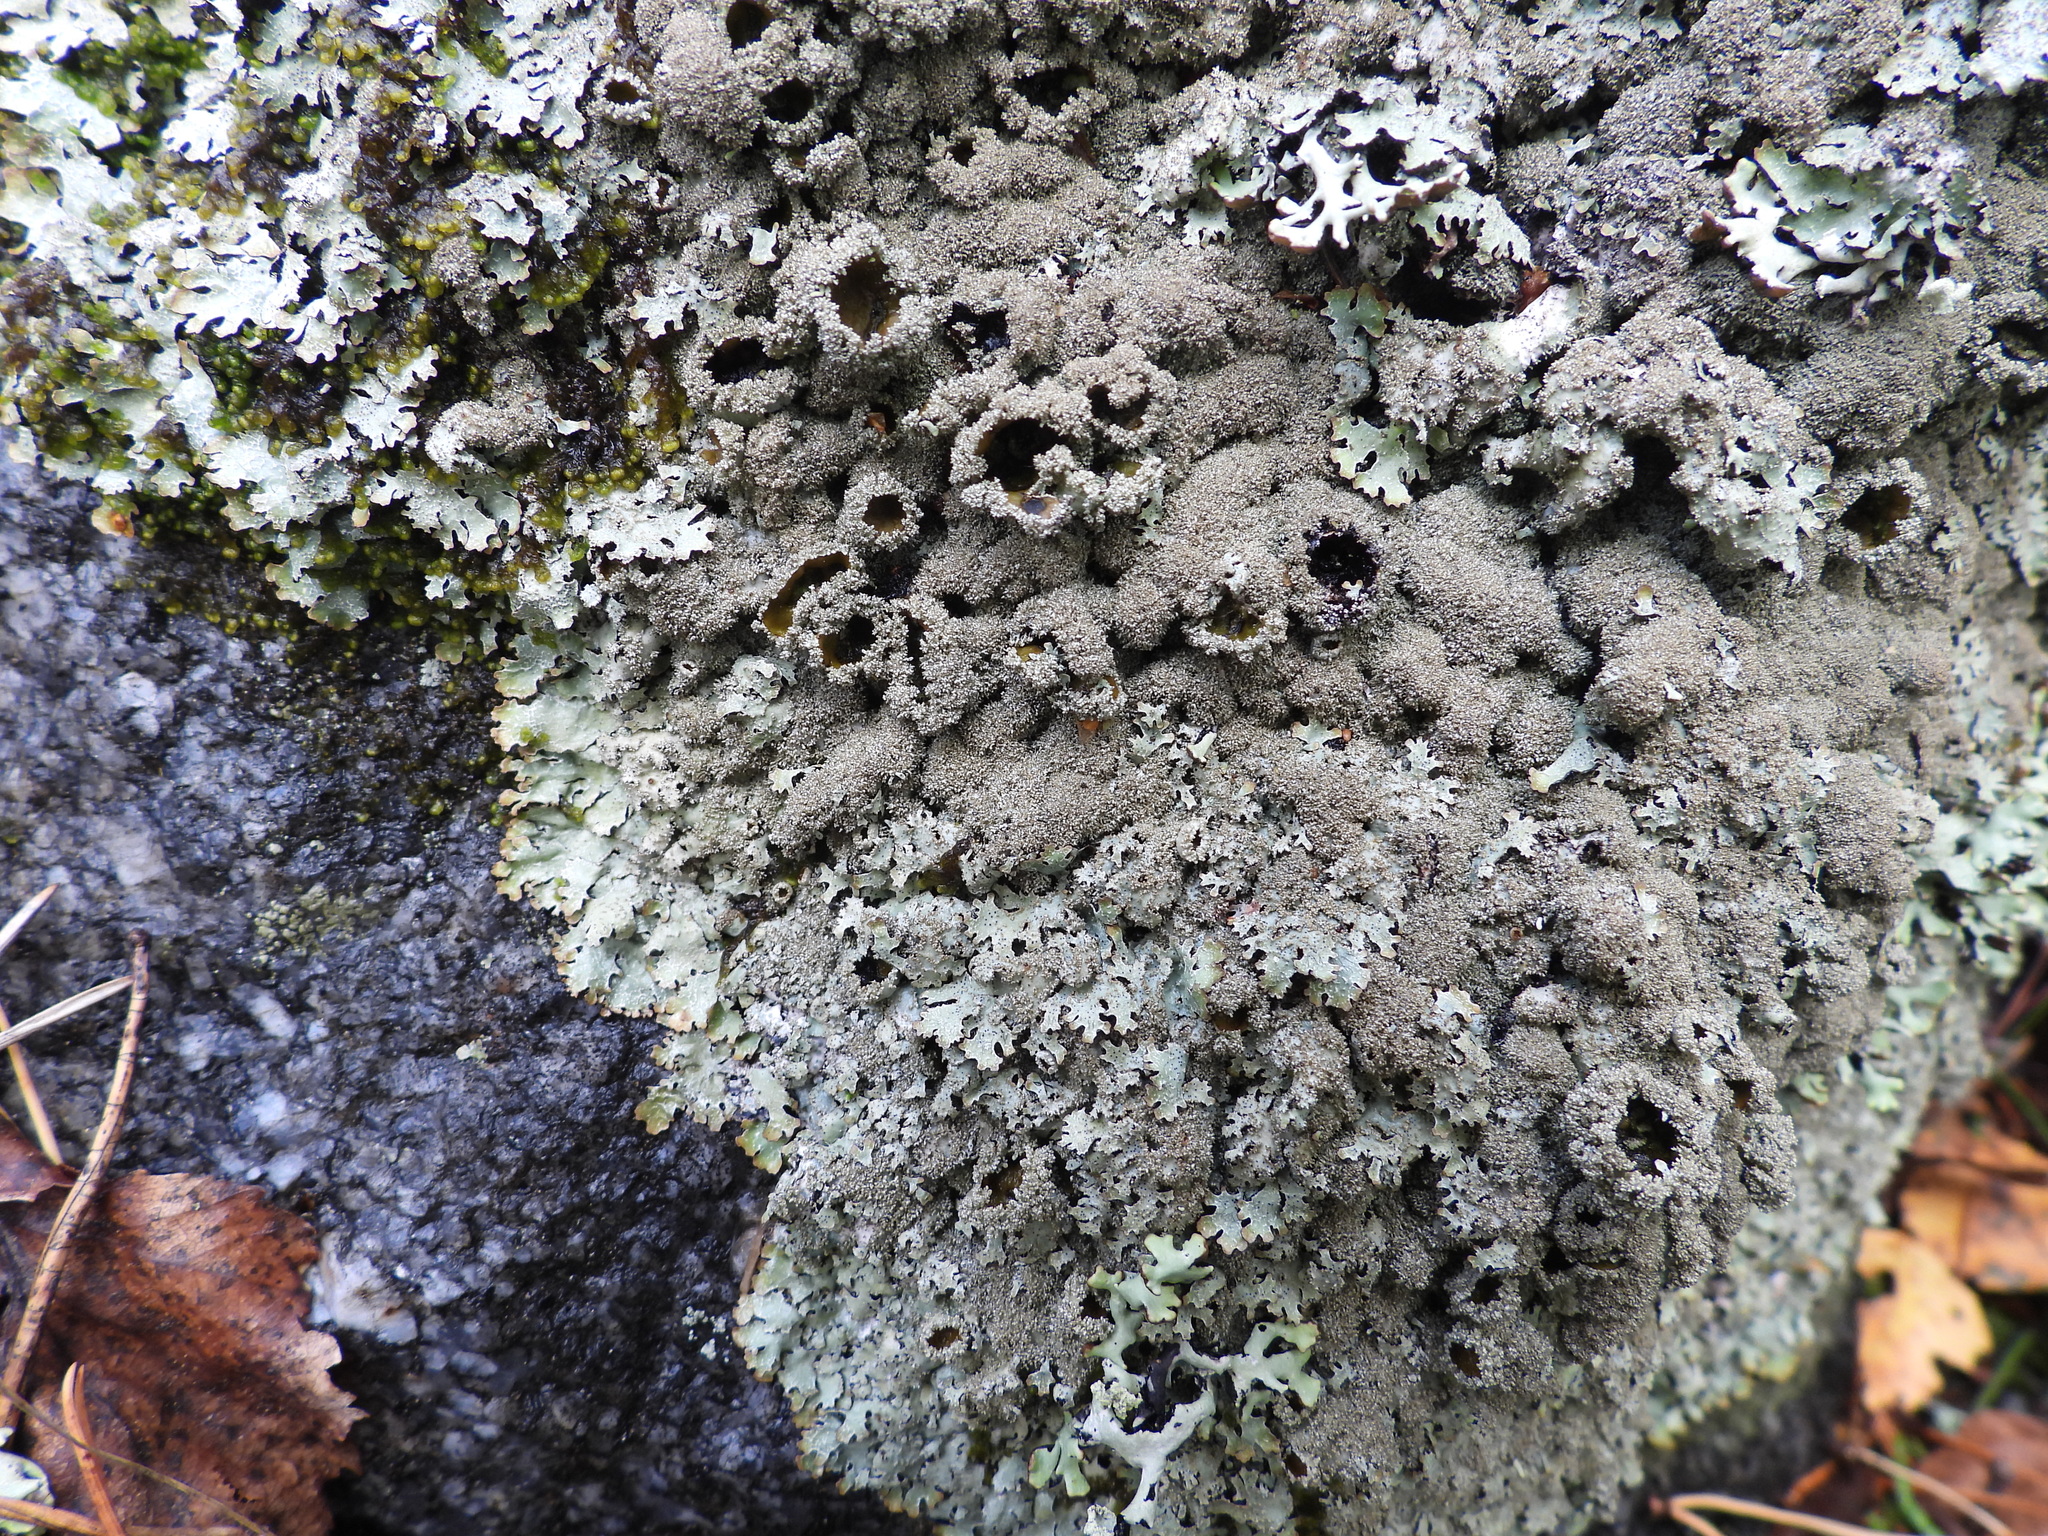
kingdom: Fungi
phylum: Ascomycota
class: Lecanoromycetes
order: Lecanorales
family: Parmeliaceae
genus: Parmelia
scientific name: Parmelia saxatilis
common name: Salted shield lichen
